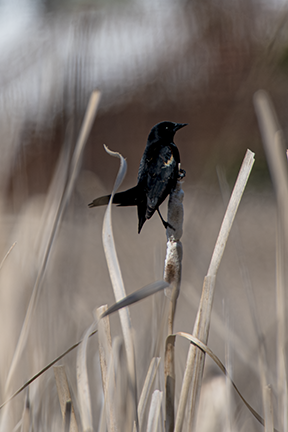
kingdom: Animalia
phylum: Chordata
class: Aves
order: Passeriformes
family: Icteridae
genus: Agelaius
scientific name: Agelaius phoeniceus
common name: Red-winged blackbird
